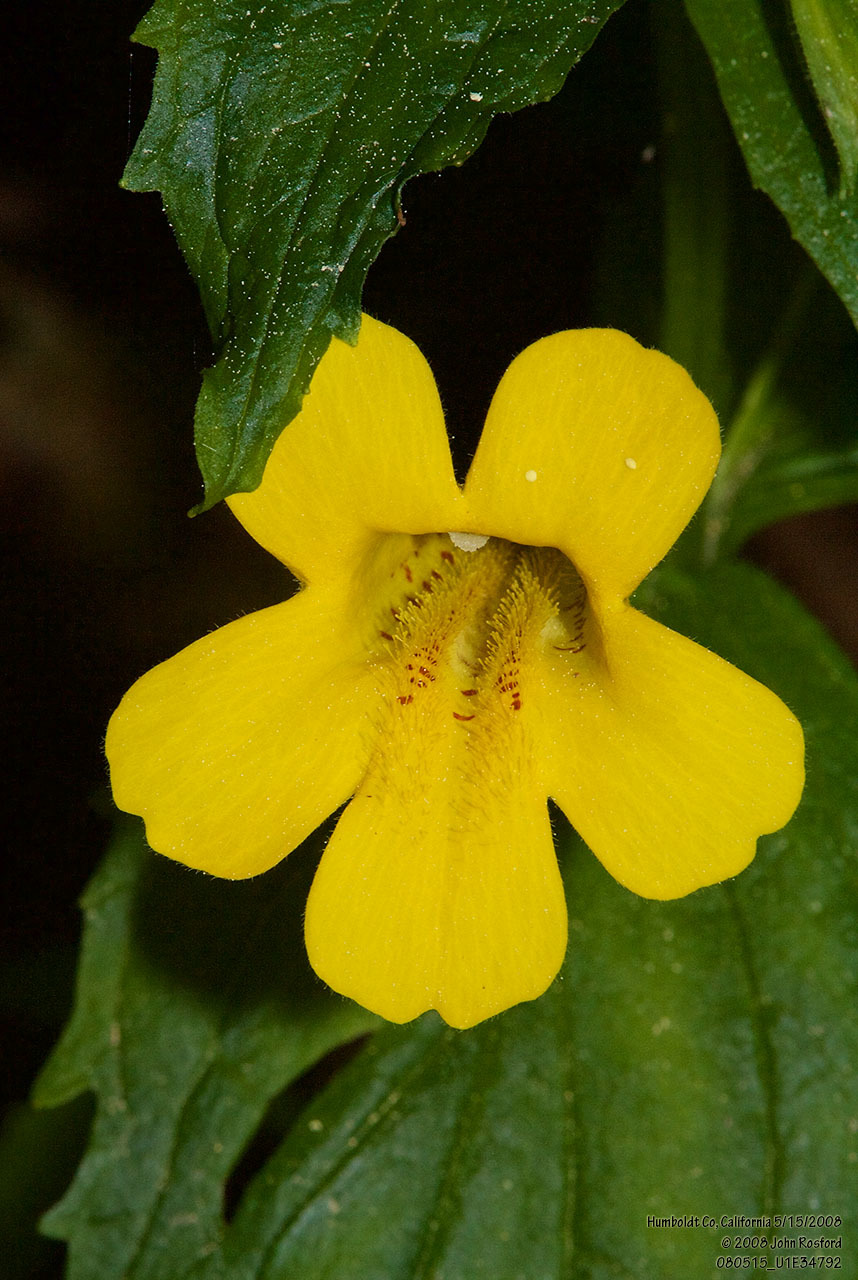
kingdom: Plantae
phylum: Tracheophyta
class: Magnoliopsida
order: Lamiales
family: Phrymaceae
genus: Erythranthe
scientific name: Erythranthe dentata
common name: Coastal monkeyflower
